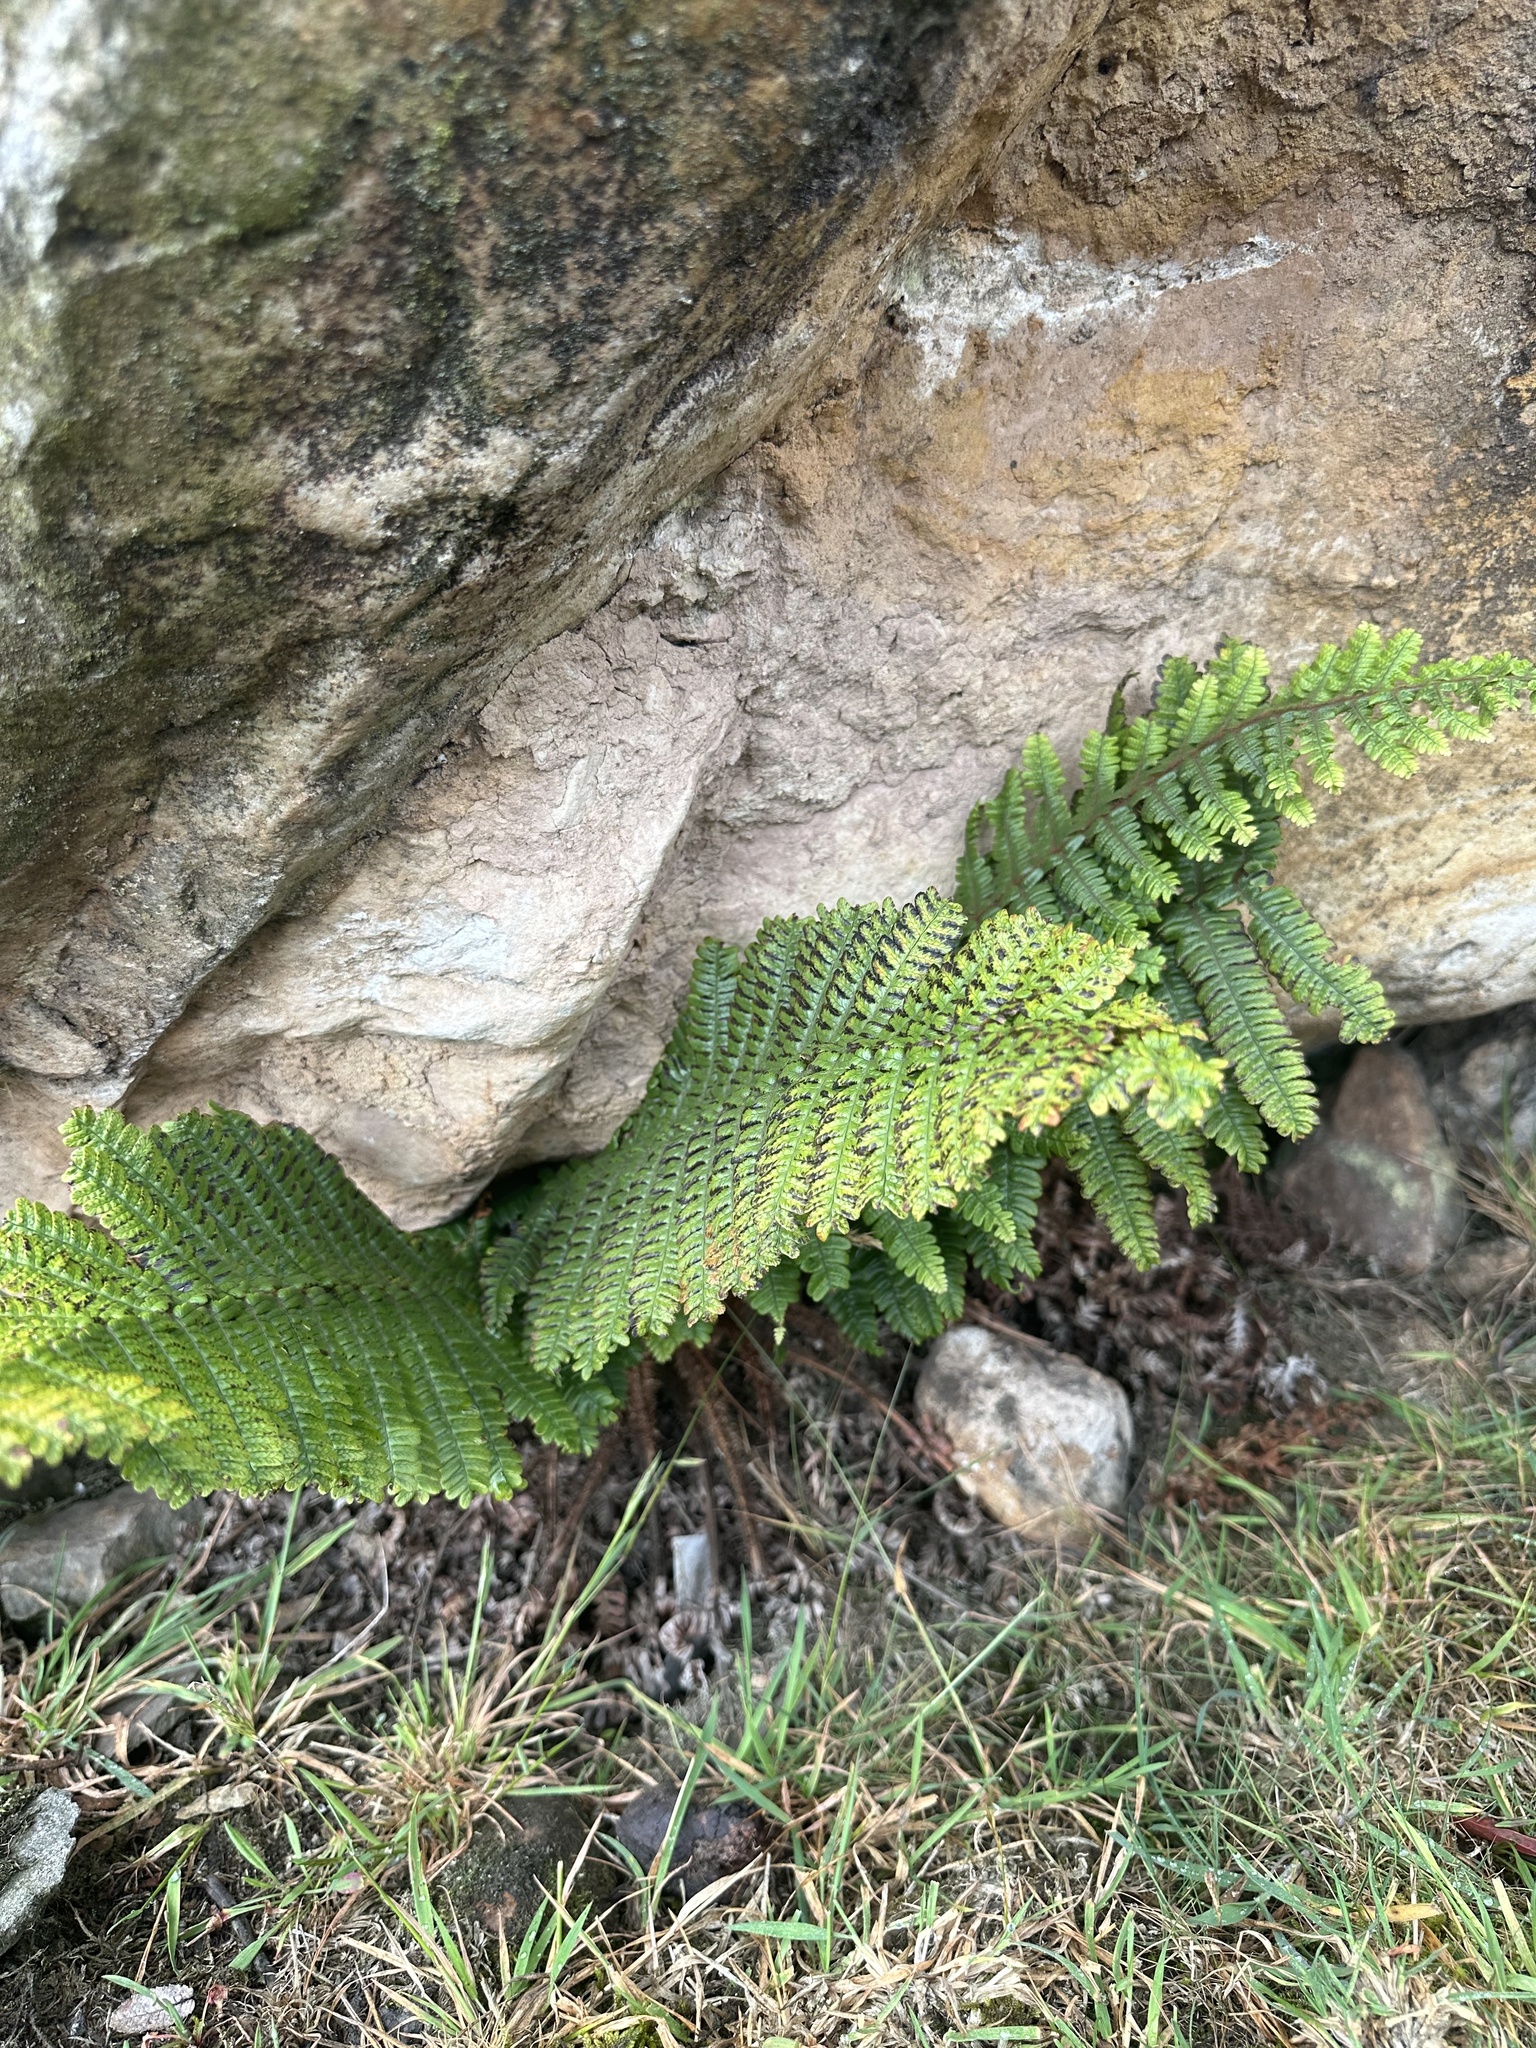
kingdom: Plantae
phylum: Tracheophyta
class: Polypodiopsida
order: Polypodiales
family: Dryopteridaceae
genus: Dryopteris
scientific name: Dryopteris wallichiana
